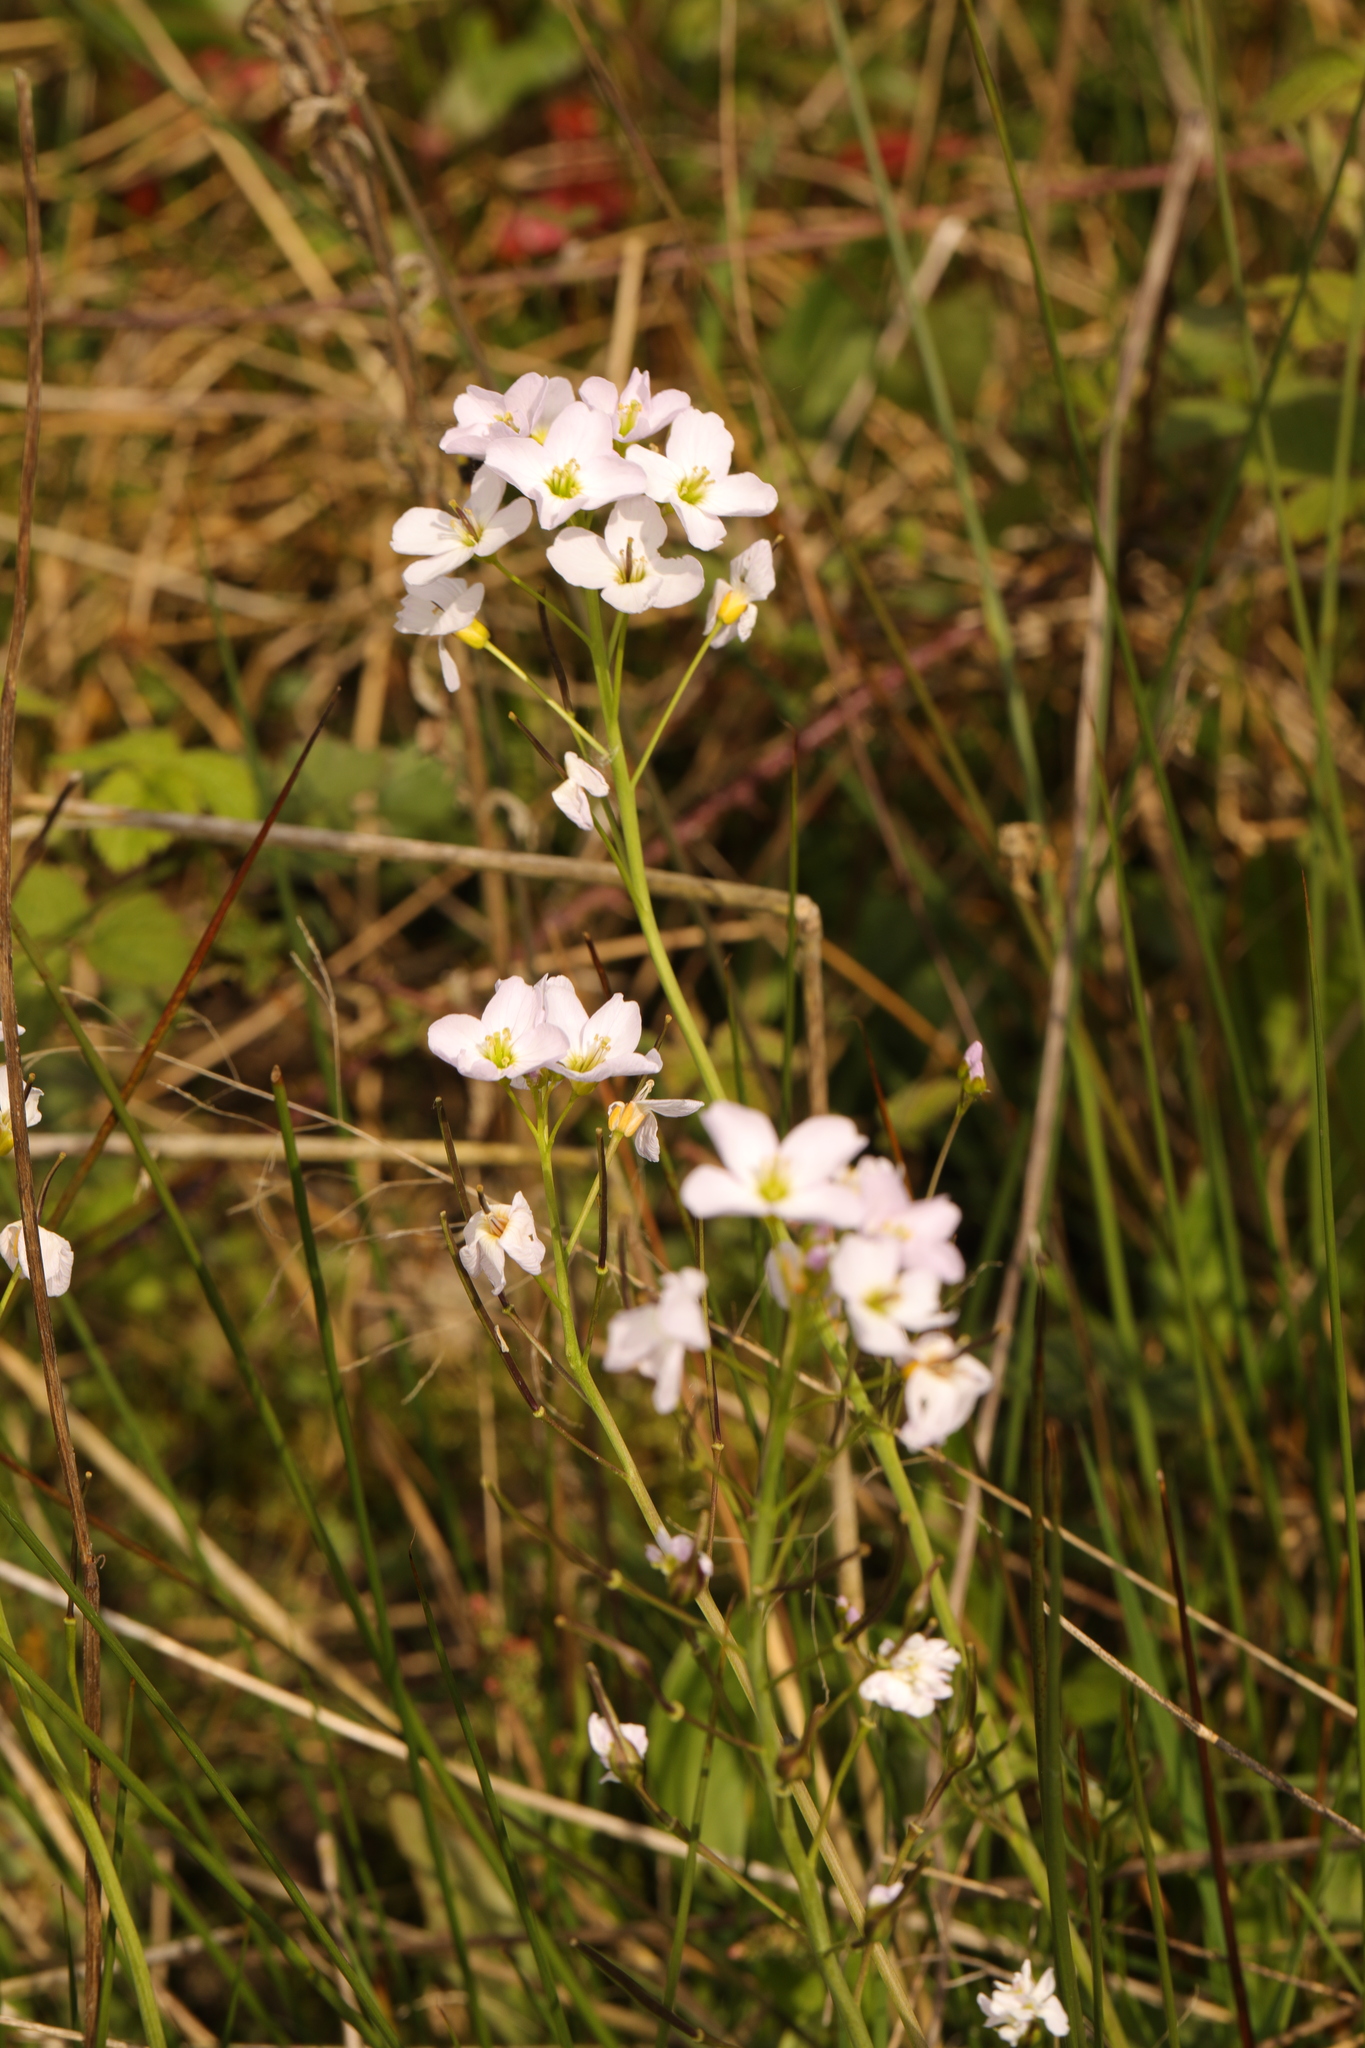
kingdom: Plantae
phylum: Tracheophyta
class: Magnoliopsida
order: Brassicales
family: Brassicaceae
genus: Cardamine
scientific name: Cardamine pratensis
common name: Cuckoo flower
